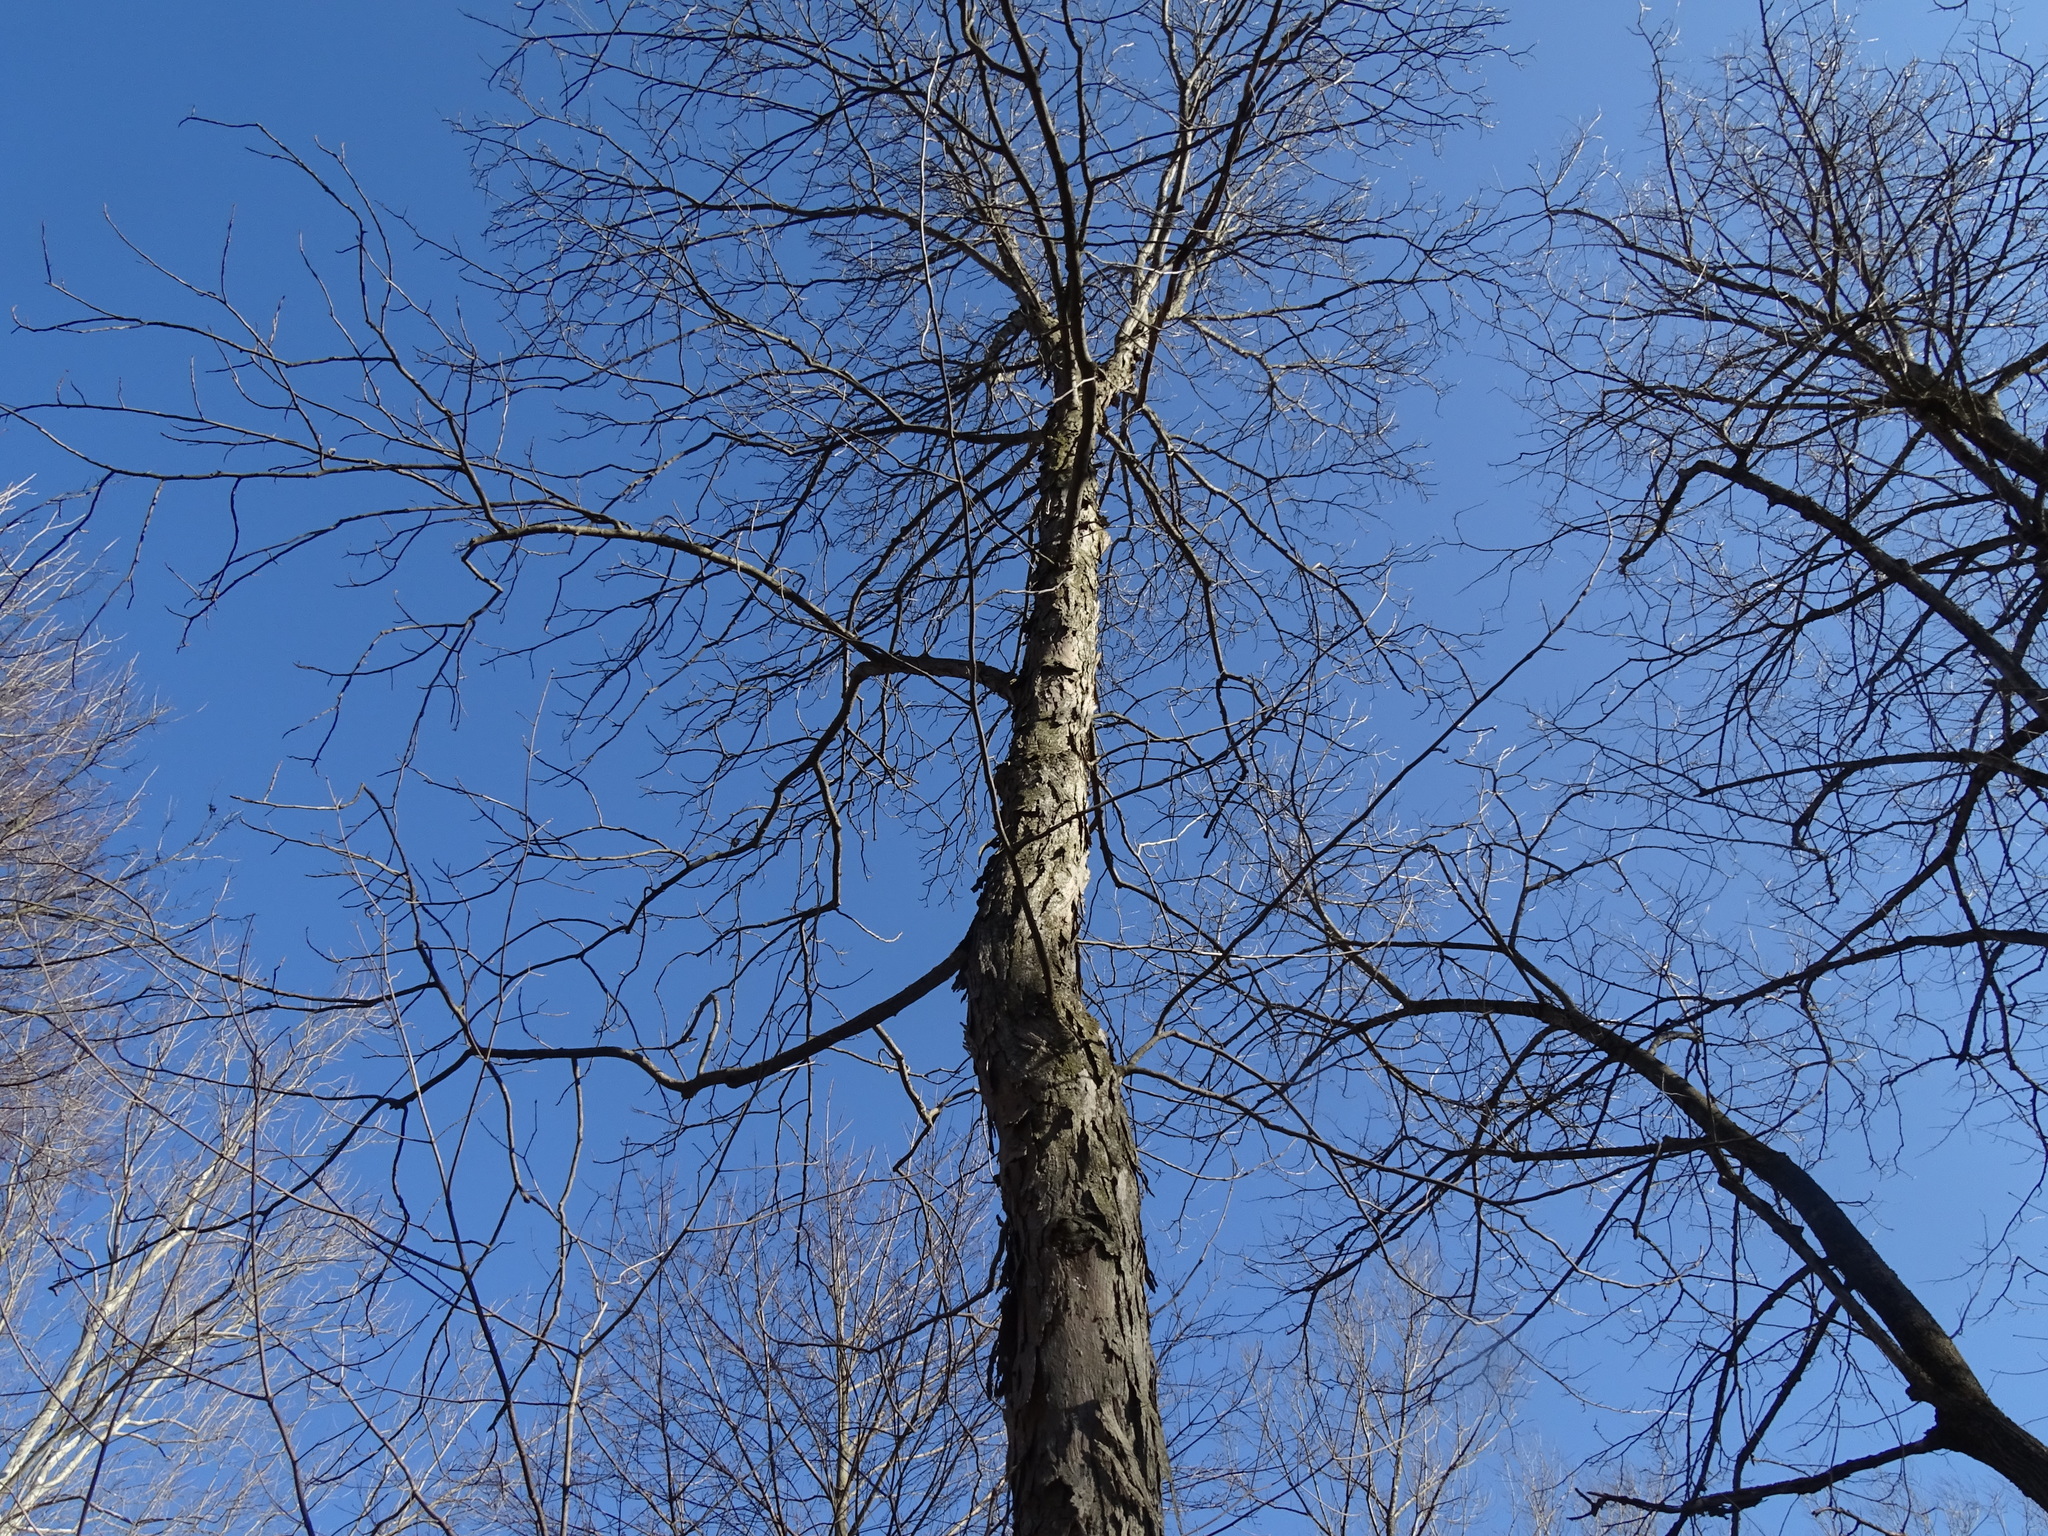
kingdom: Plantae
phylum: Tracheophyta
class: Magnoliopsida
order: Fagales
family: Juglandaceae
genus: Carya
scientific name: Carya ovata
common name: Shagbark hickory
